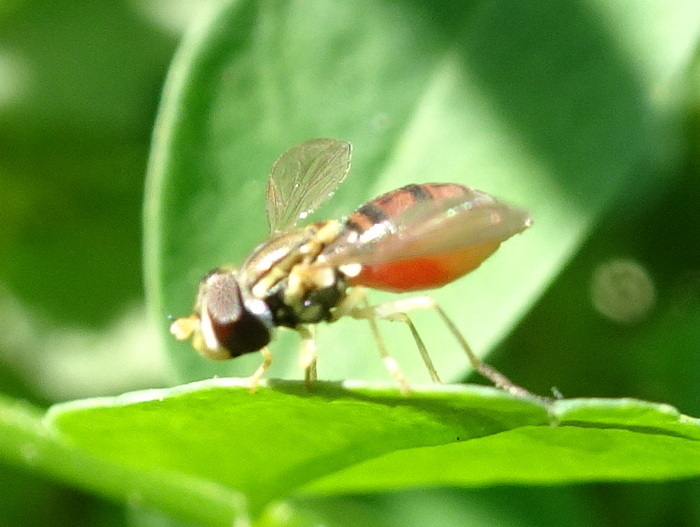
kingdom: Animalia
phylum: Arthropoda
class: Insecta
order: Diptera
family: Syrphidae
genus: Toxomerus
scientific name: Toxomerus marginatus
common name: Syrphid fly
